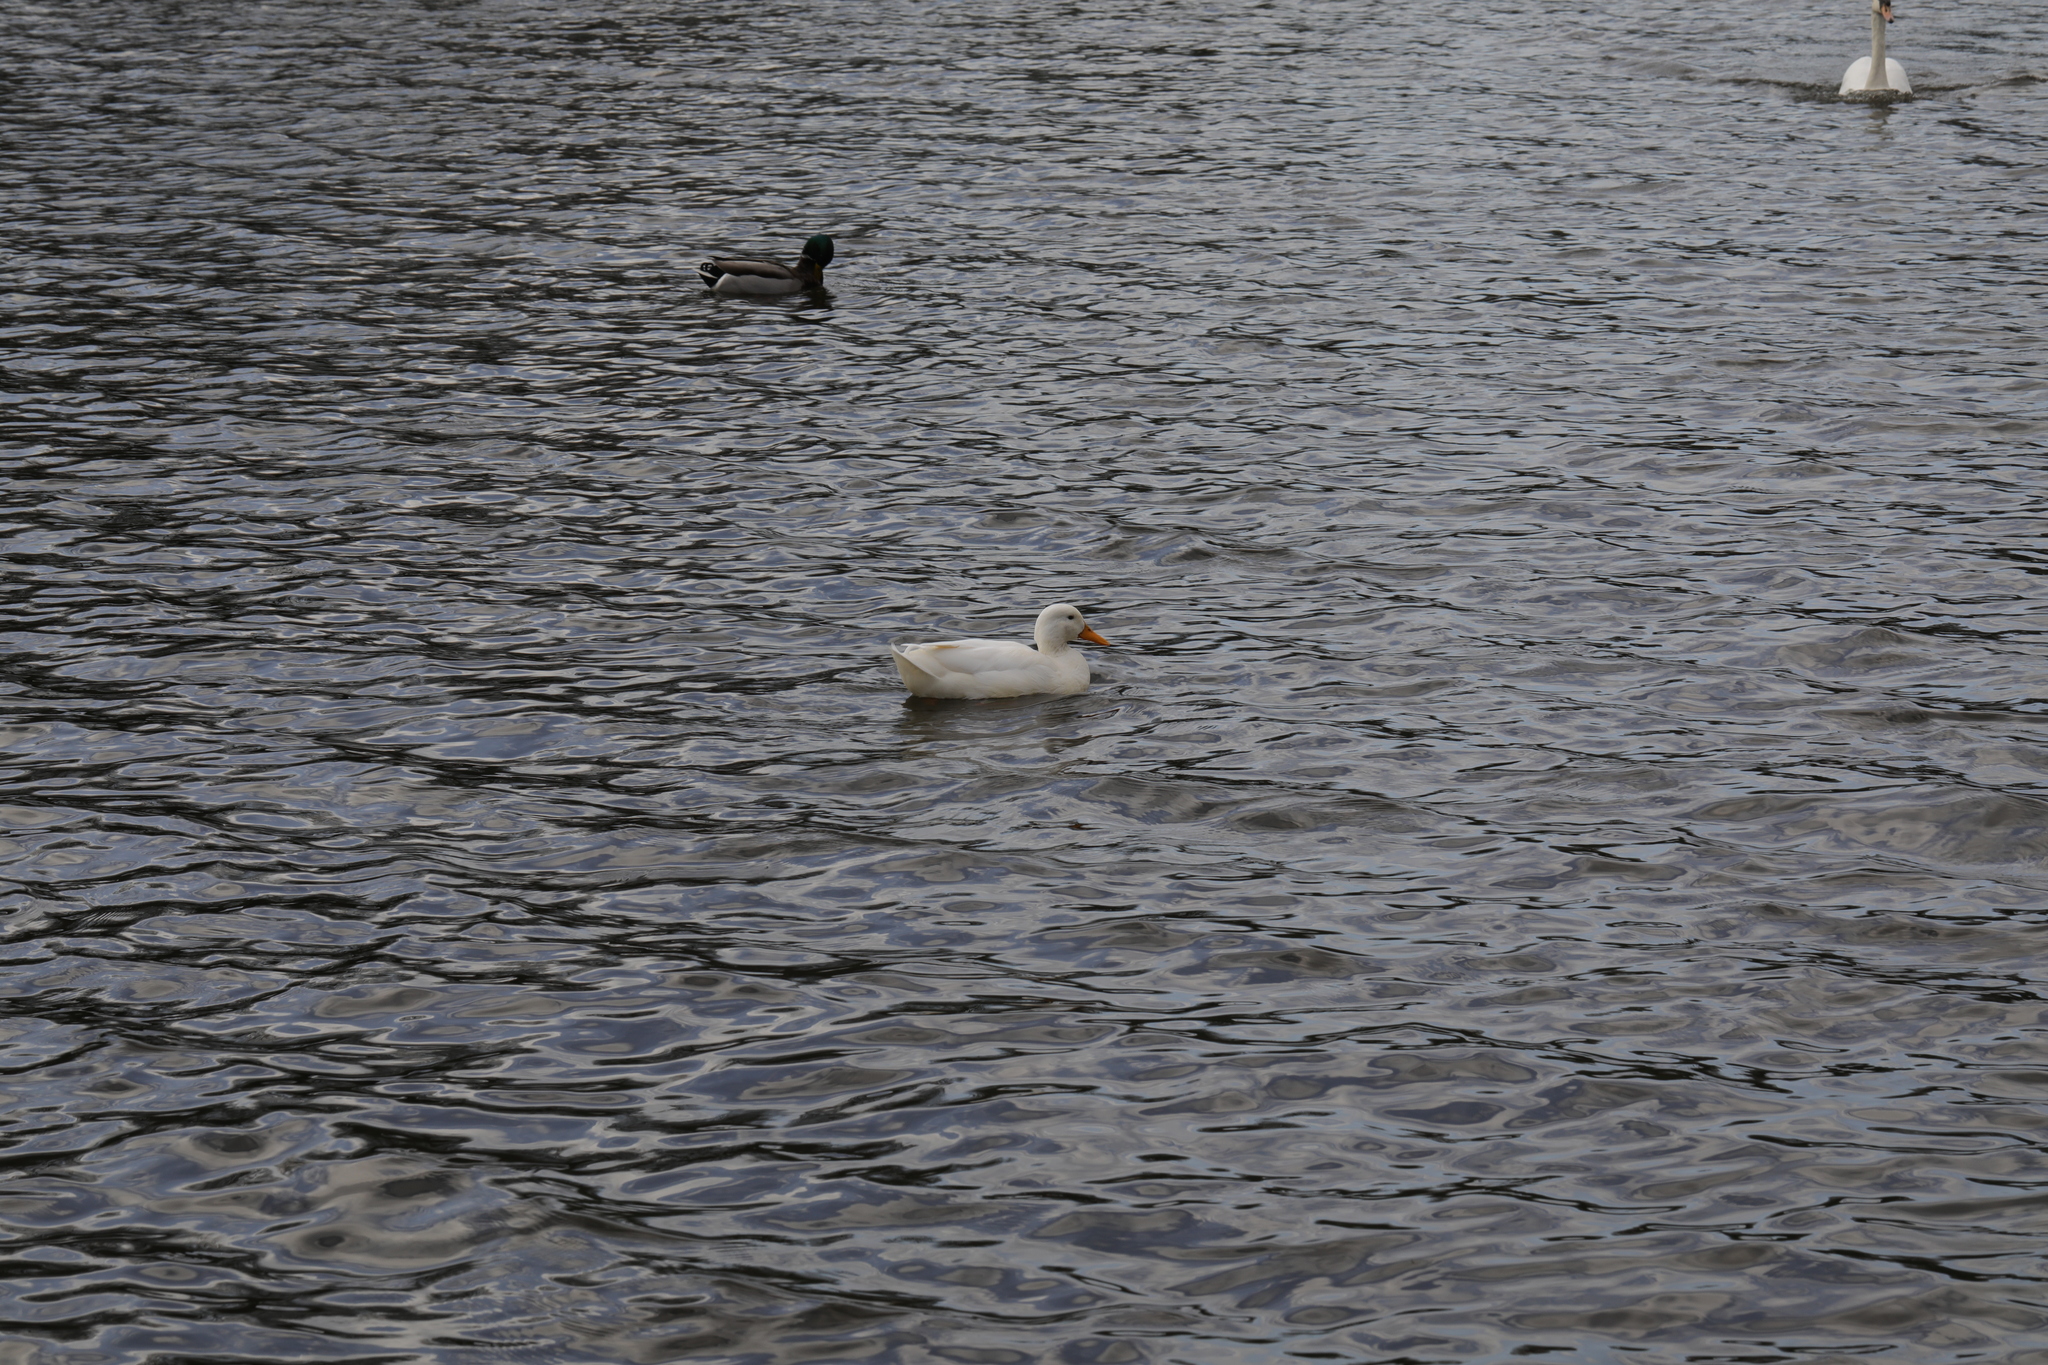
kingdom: Animalia
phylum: Chordata
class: Aves
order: Anseriformes
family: Anatidae
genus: Anas
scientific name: Anas platyrhynchos
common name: Mallard
